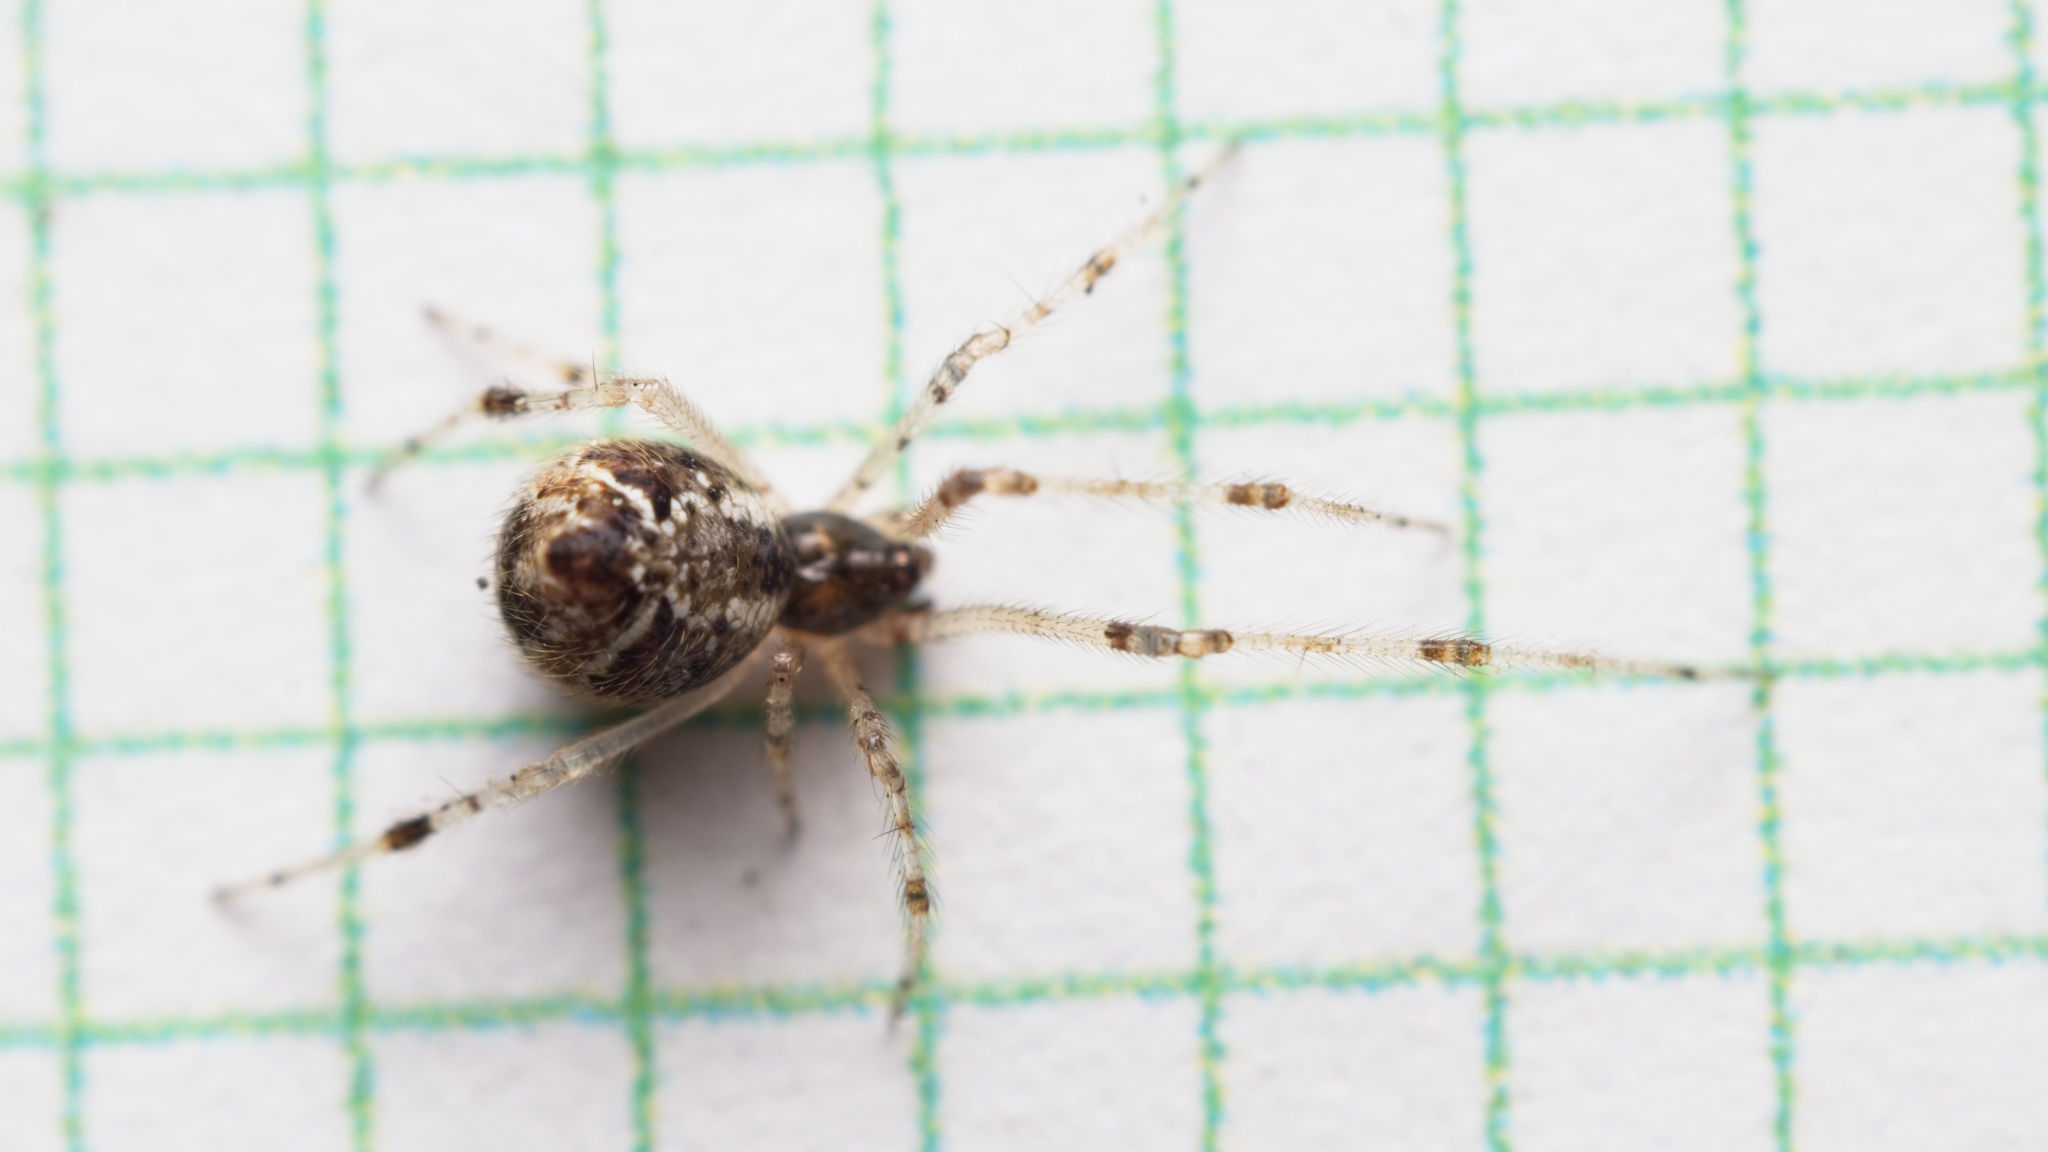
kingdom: Animalia
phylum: Arthropoda
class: Arachnida
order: Araneae
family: Theridiidae
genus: Cryptachaea
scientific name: Cryptachaea meraukensis
